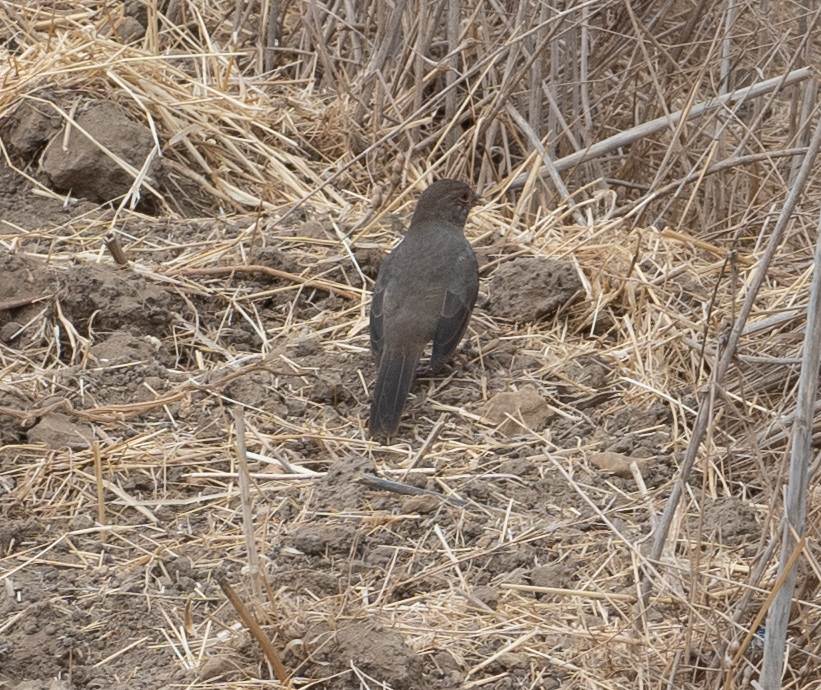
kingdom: Animalia
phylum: Chordata
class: Aves
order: Passeriformes
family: Passerellidae
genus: Melozone
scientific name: Melozone crissalis
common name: California towhee
